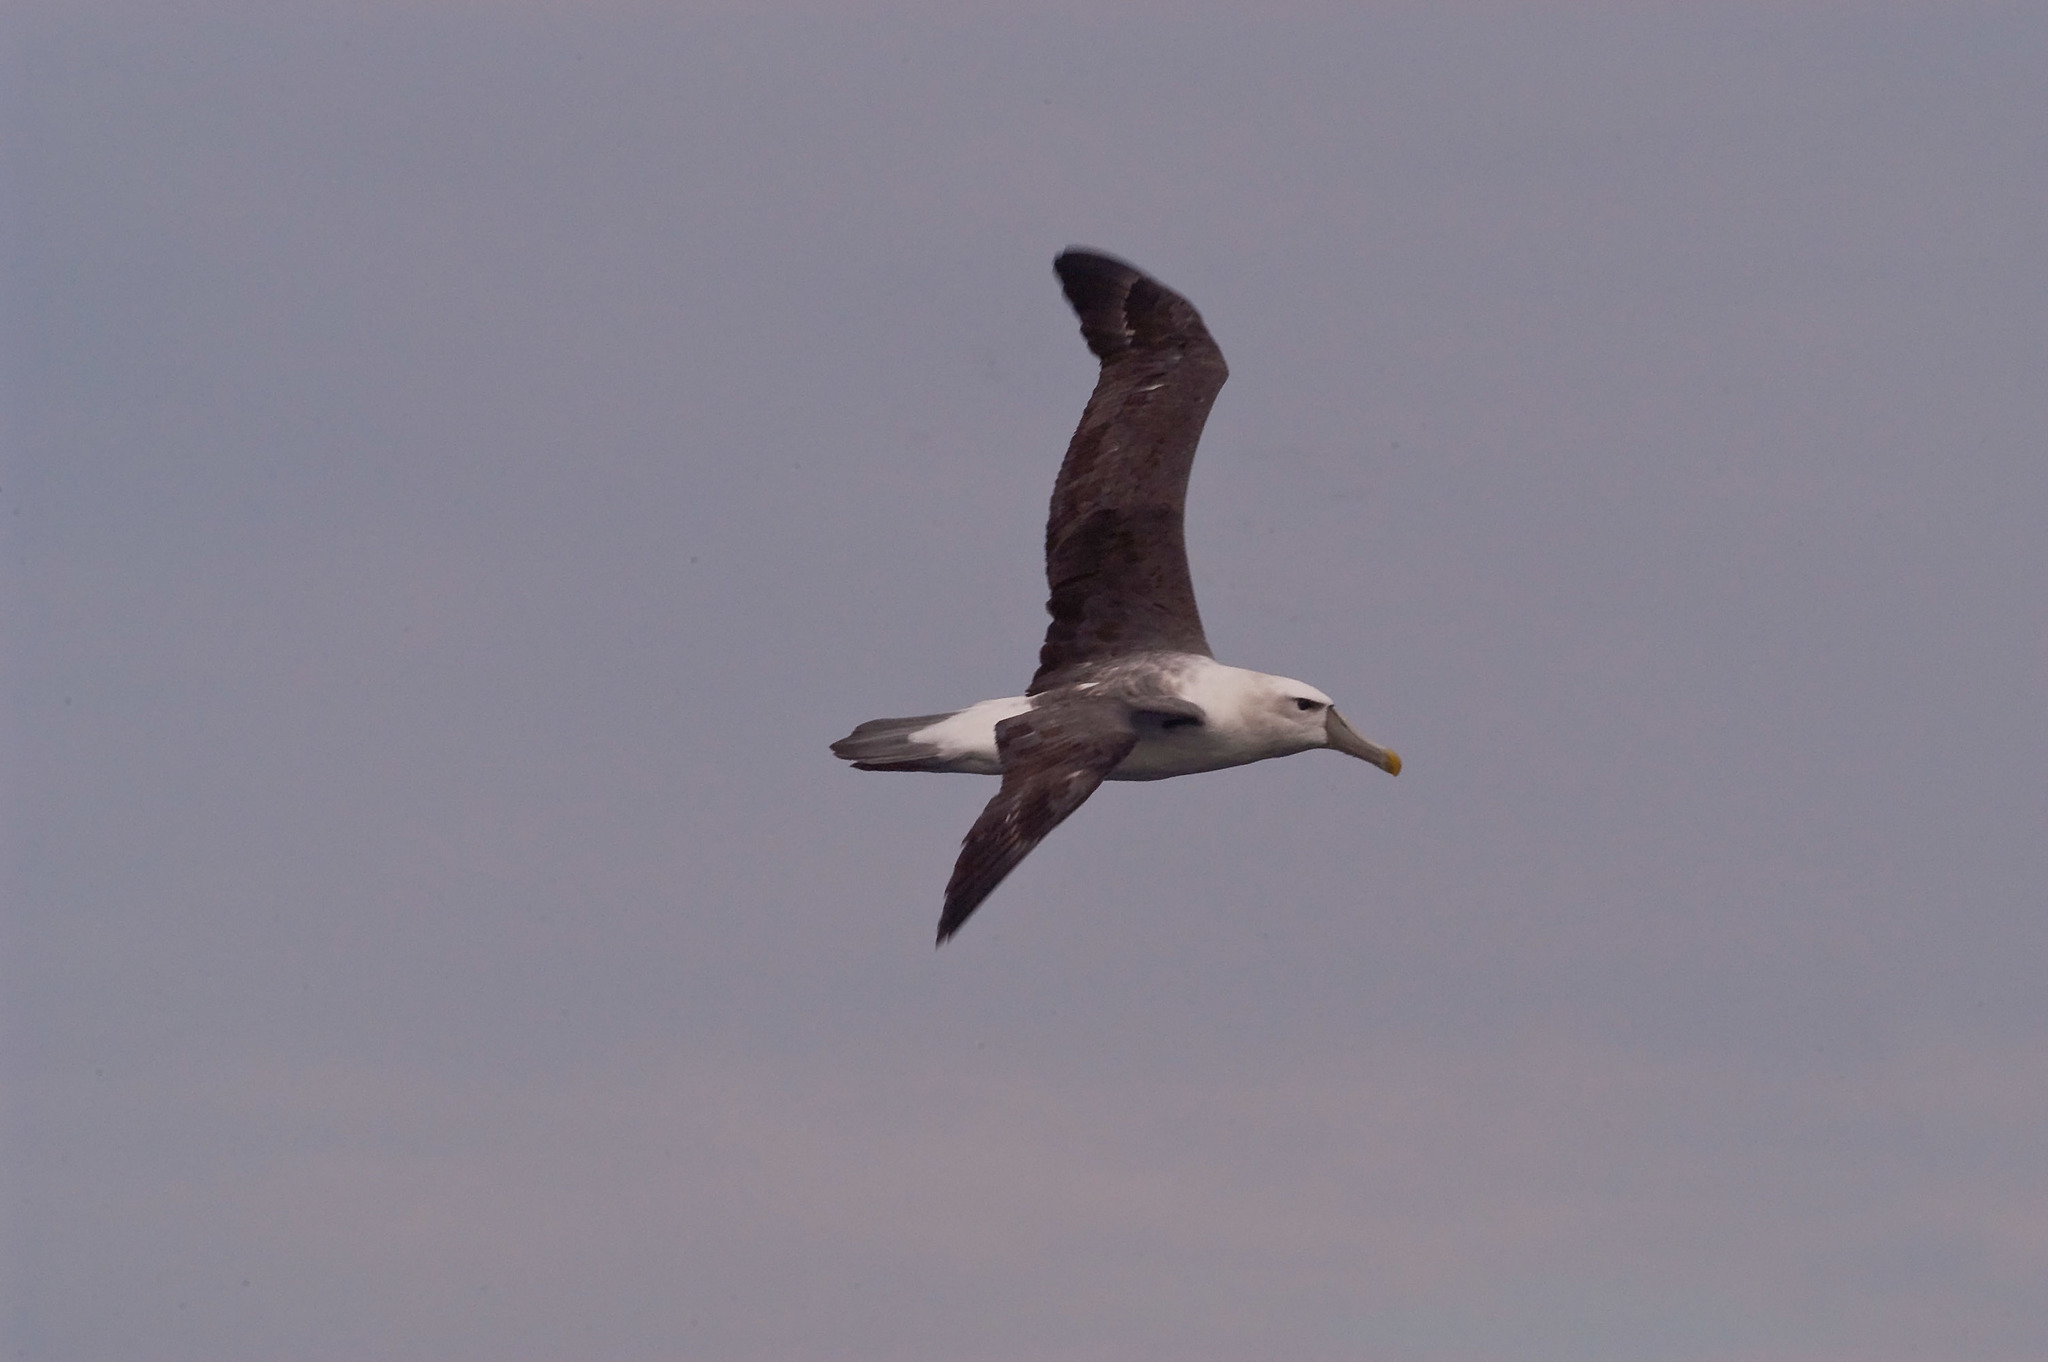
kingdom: Animalia
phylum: Chordata
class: Aves
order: Procellariiformes
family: Diomedeidae
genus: Thalassarche
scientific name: Thalassarche cauta
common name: Shy albatross
